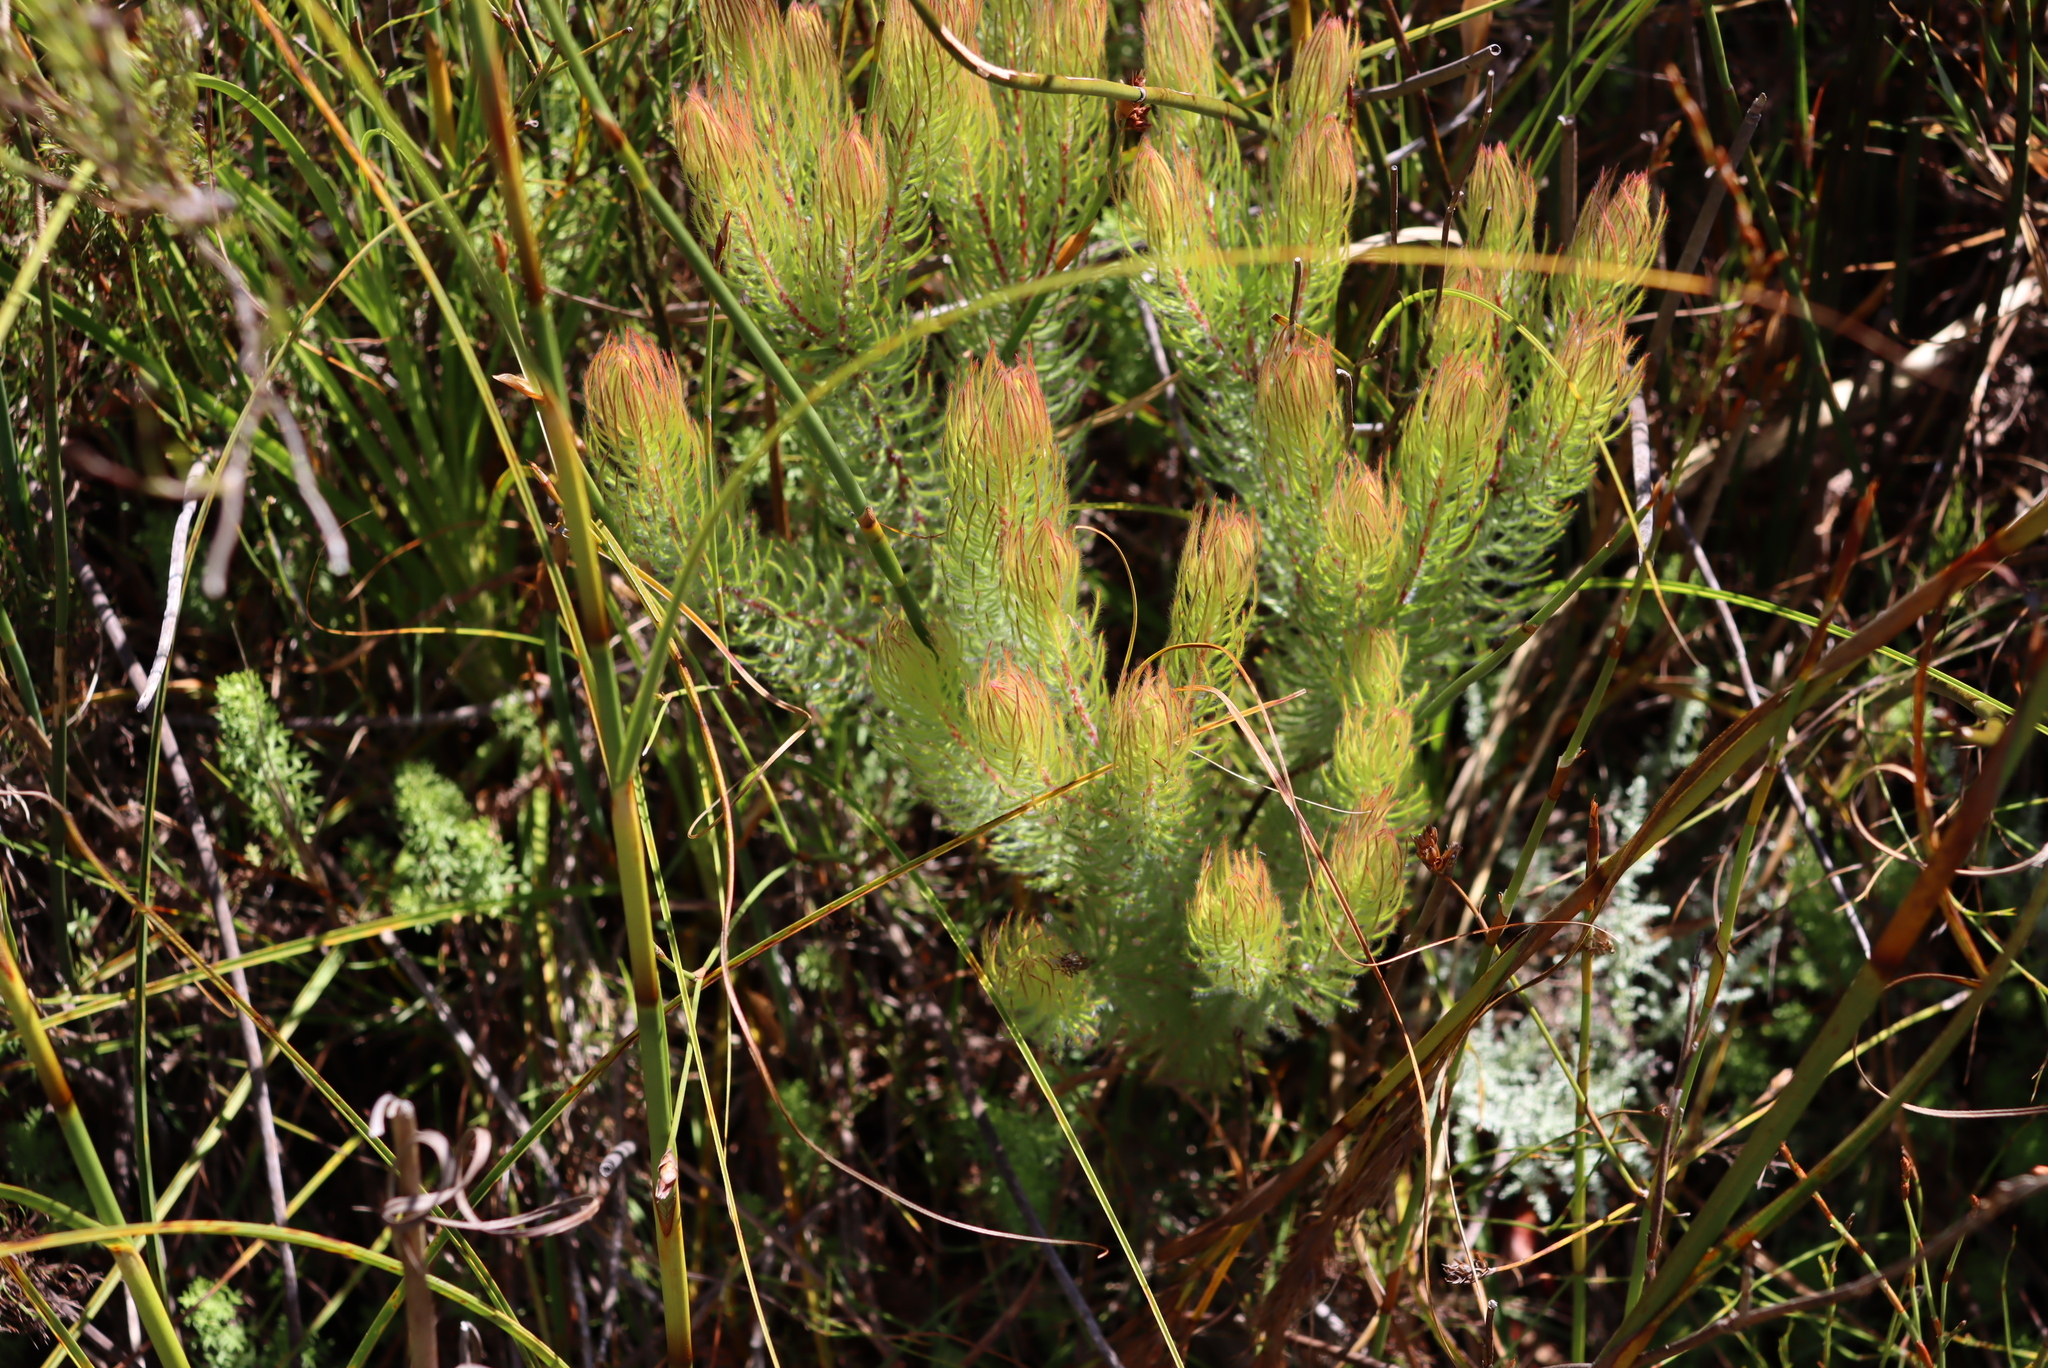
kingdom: Plantae
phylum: Tracheophyta
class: Magnoliopsida
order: Proteales
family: Proteaceae
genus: Spatalla
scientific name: Spatalla setacea
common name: Needle-leaf spoon
